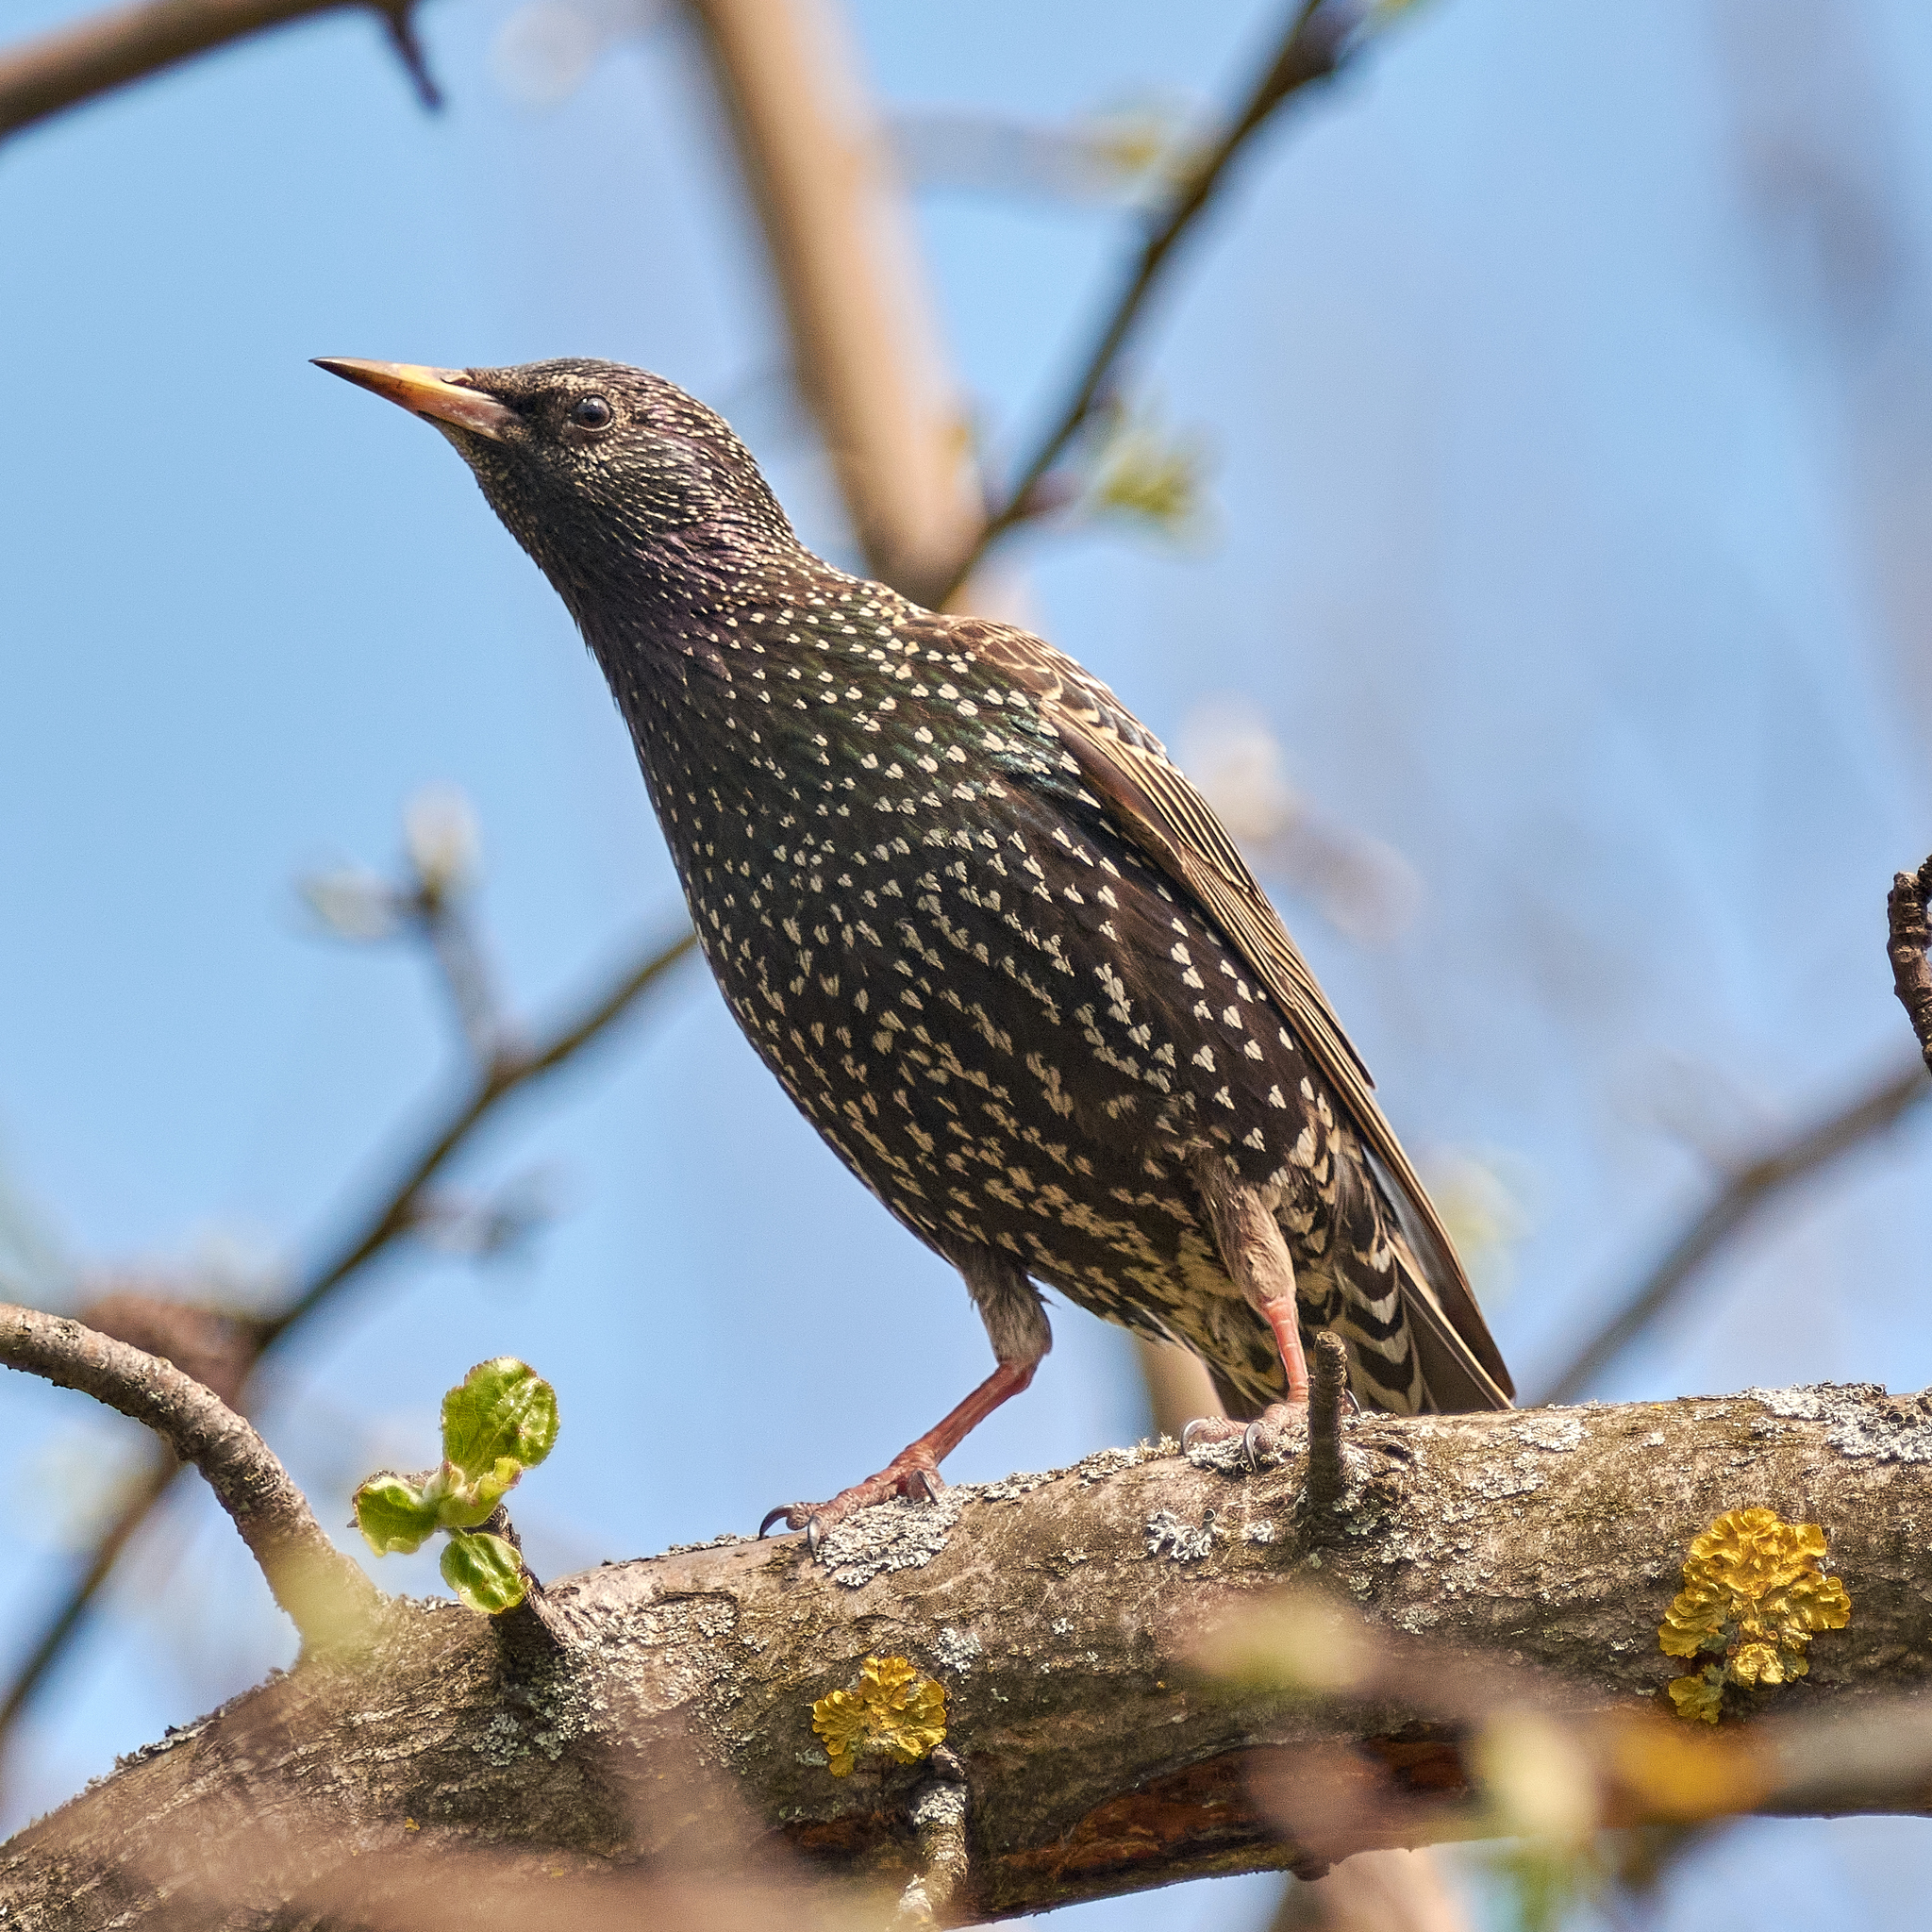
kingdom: Animalia
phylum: Chordata
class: Aves
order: Passeriformes
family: Sturnidae
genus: Sturnus
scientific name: Sturnus vulgaris
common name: Common starling
